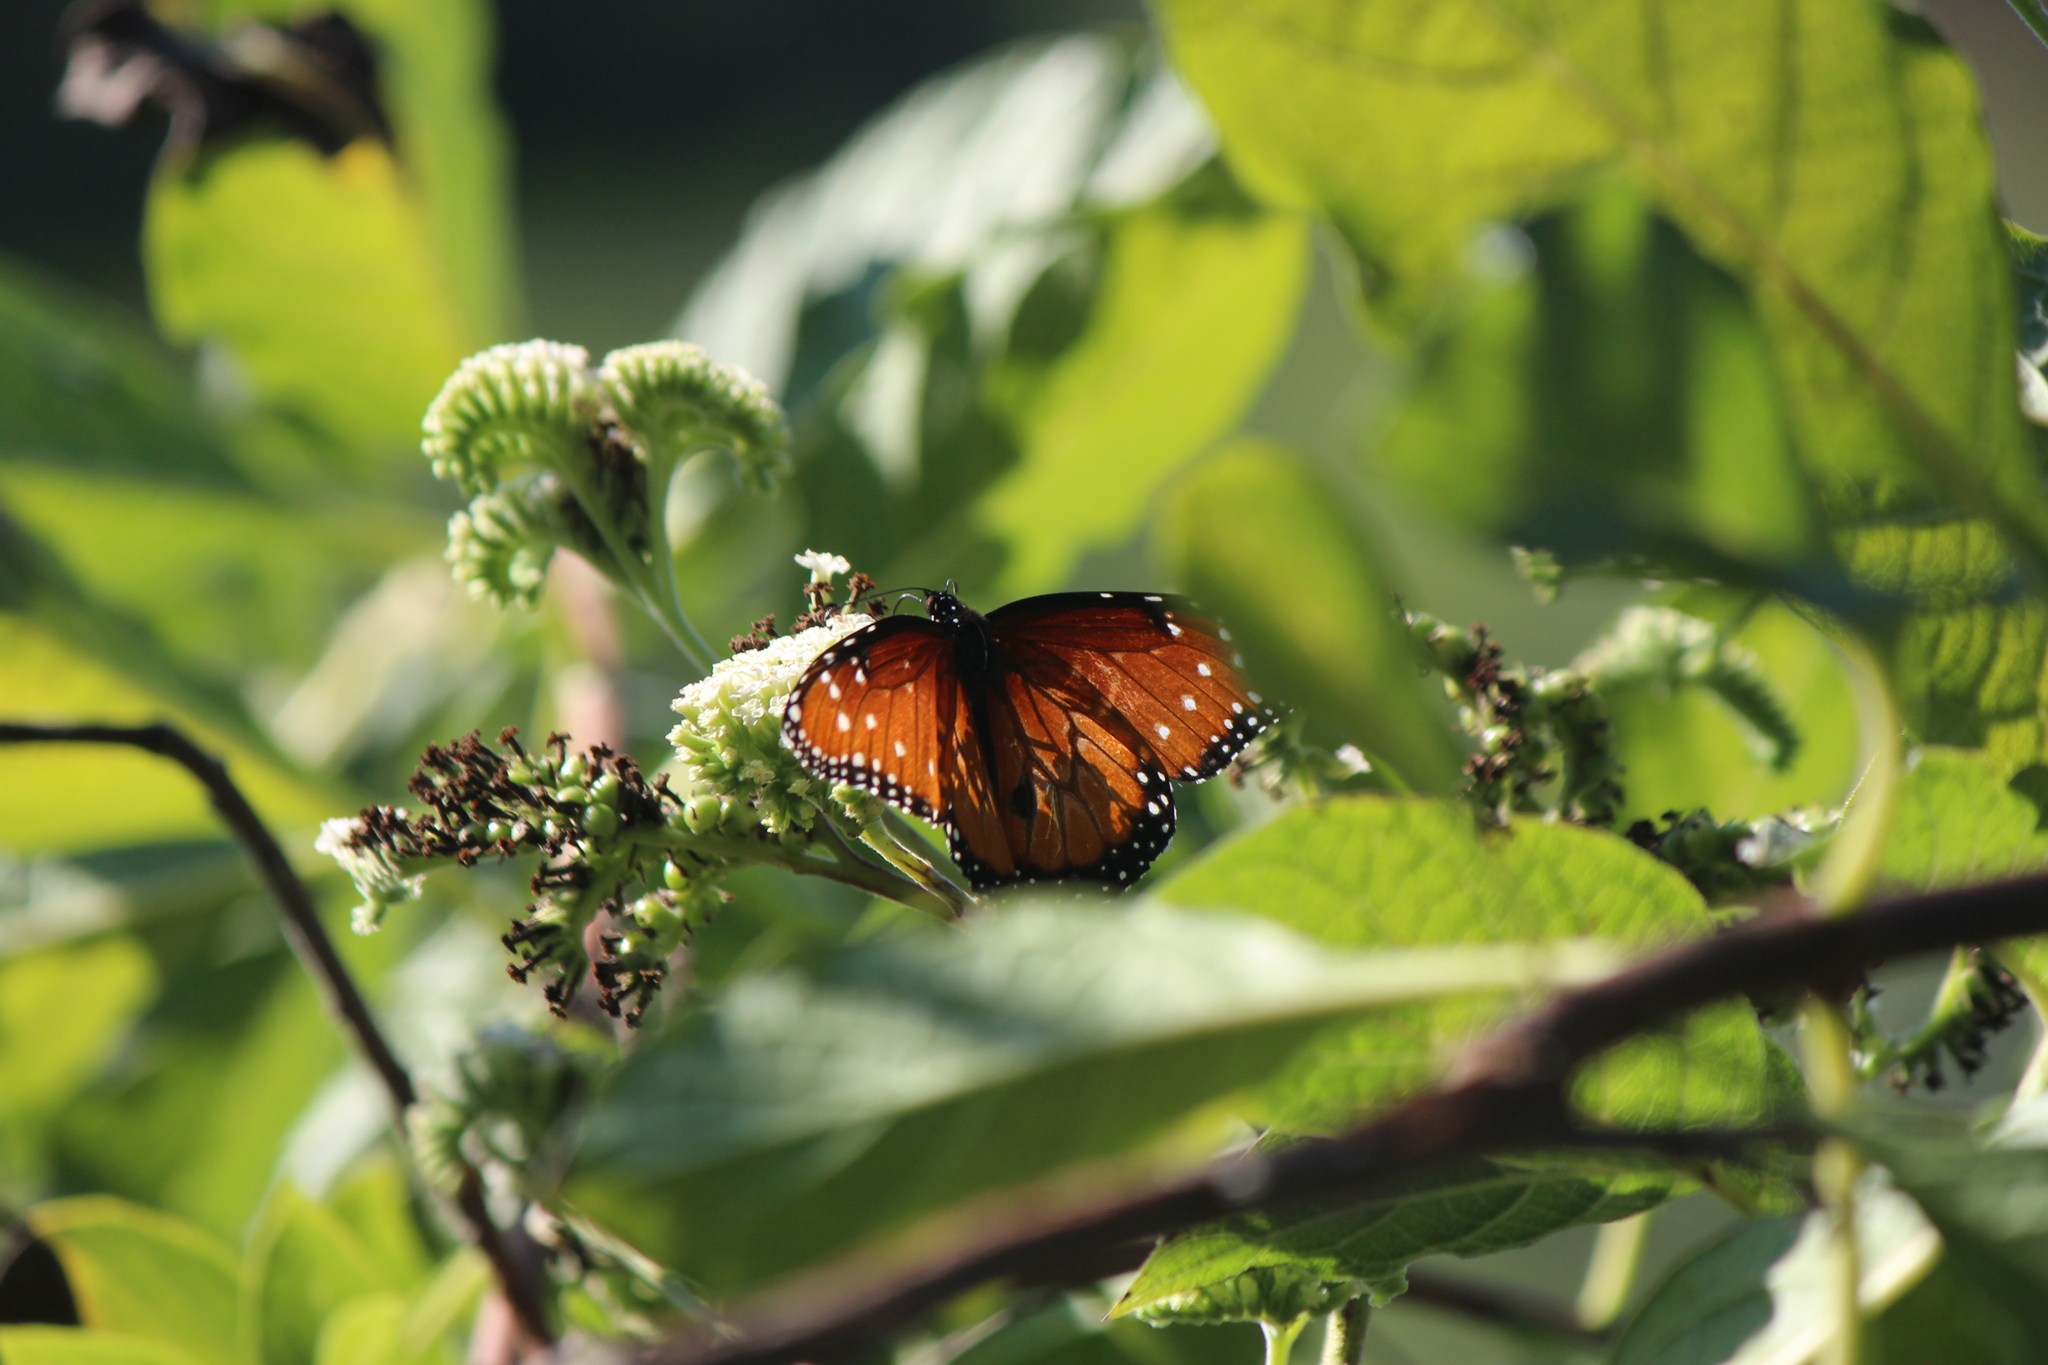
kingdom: Animalia
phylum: Arthropoda
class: Insecta
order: Lepidoptera
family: Nymphalidae
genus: Danaus
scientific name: Danaus gilippus
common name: Queen
